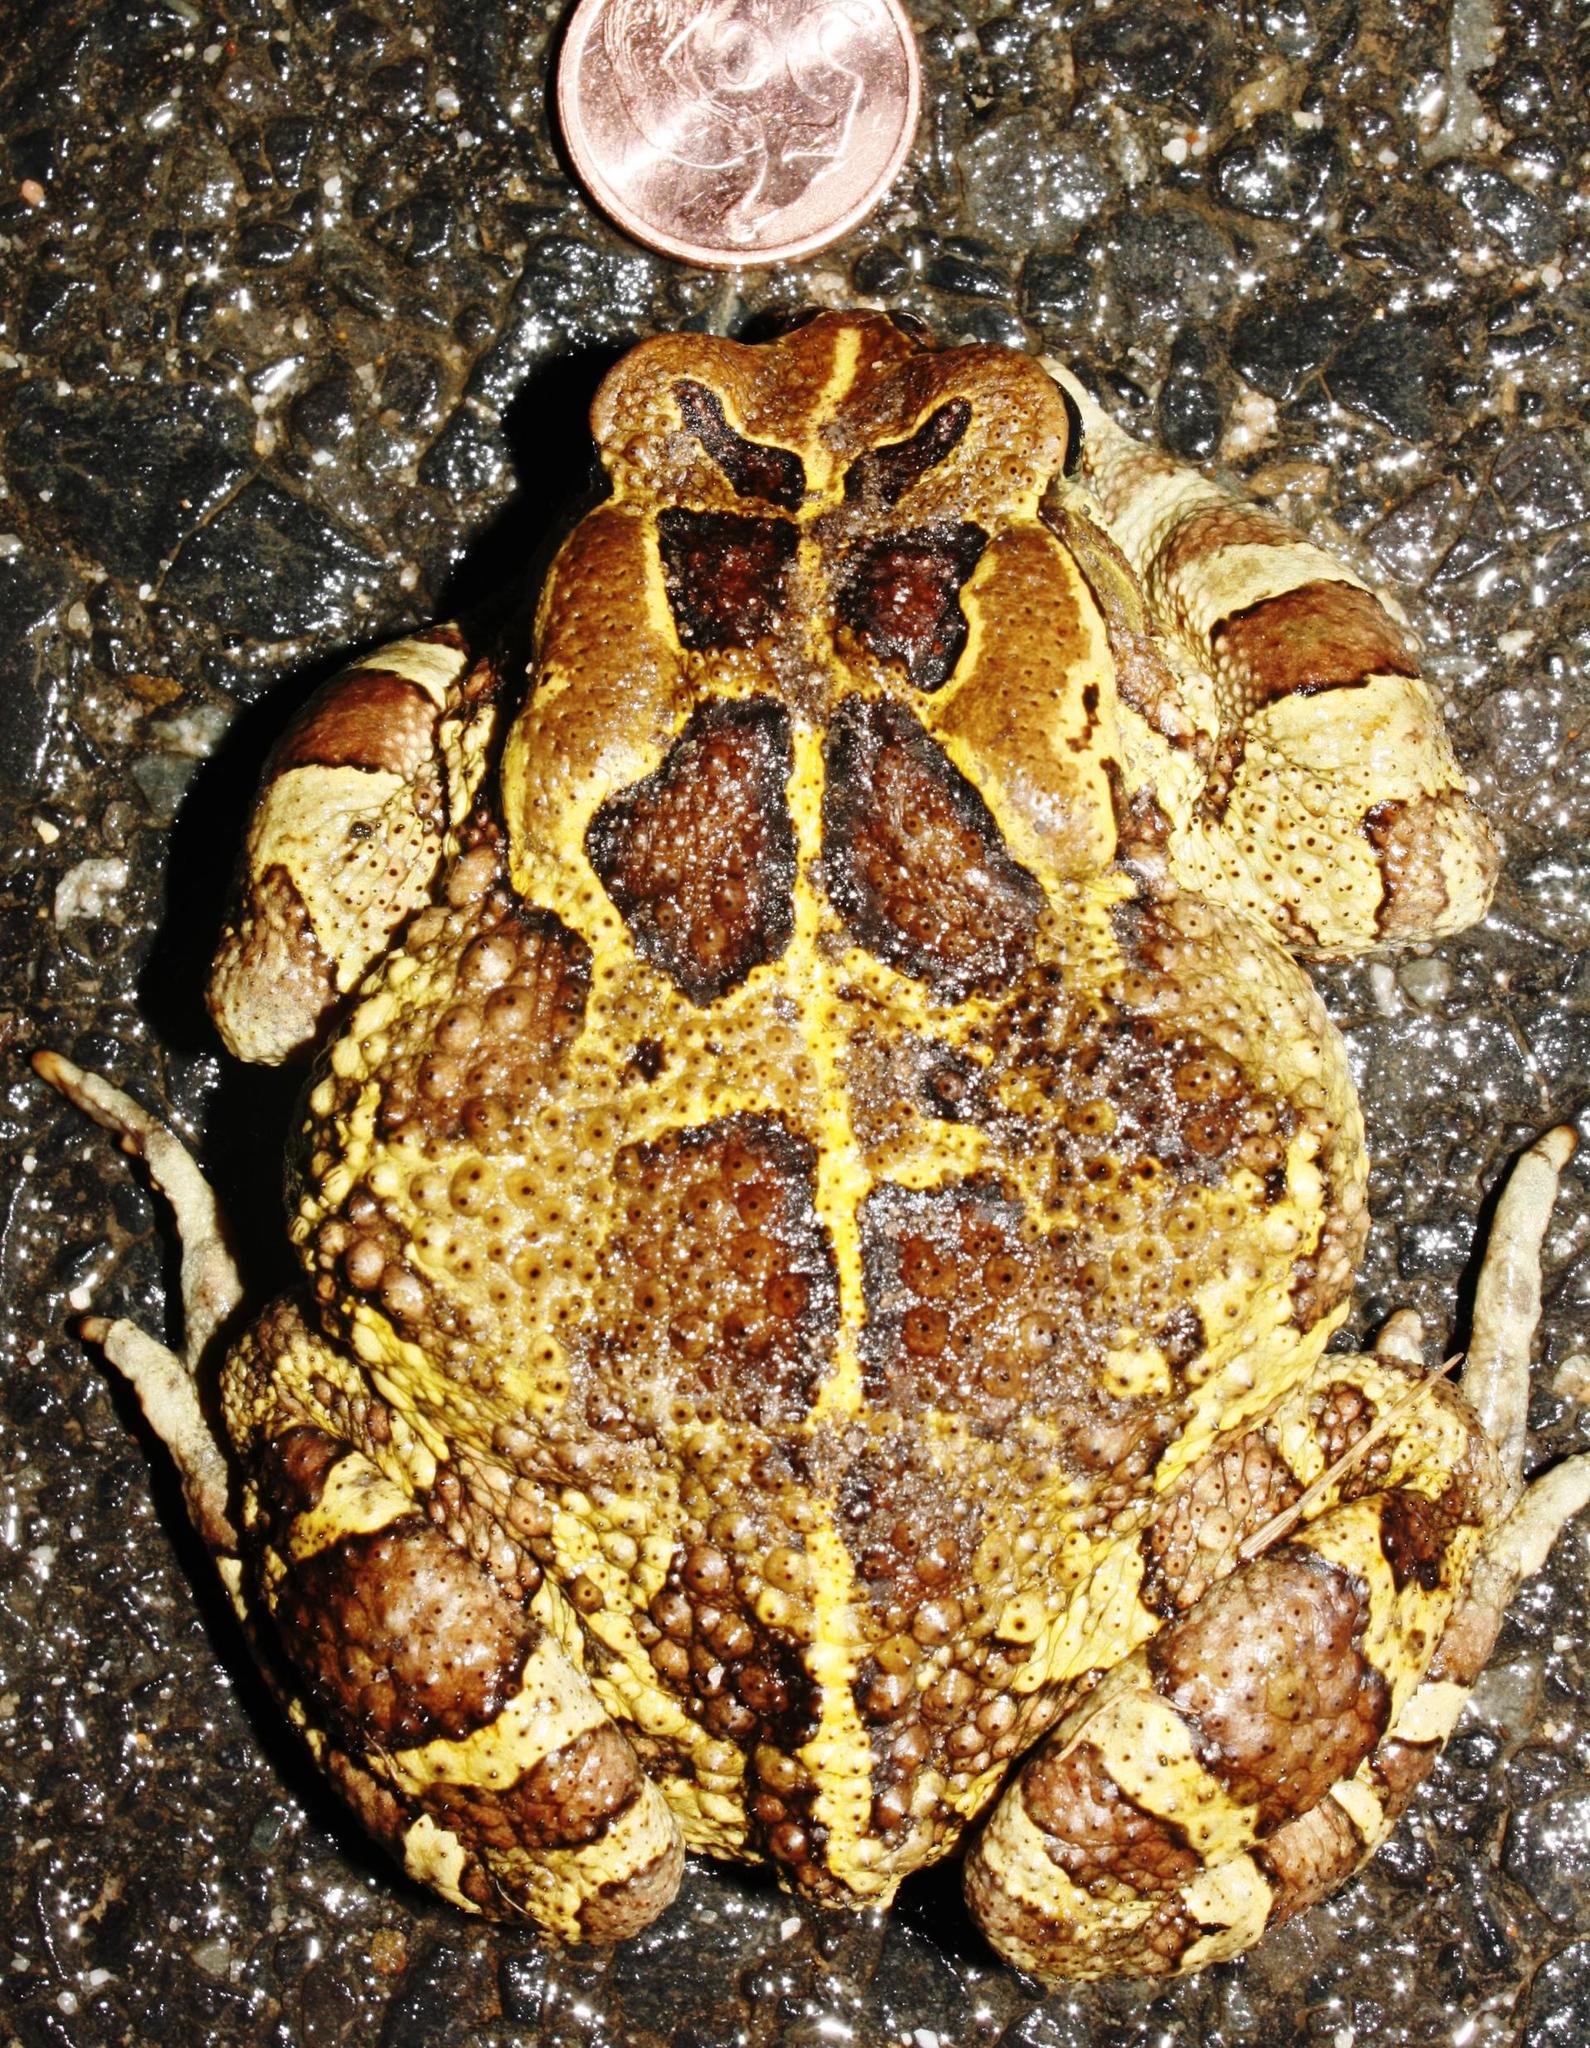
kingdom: Animalia
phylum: Chordata
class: Amphibia
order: Anura
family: Bufonidae
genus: Sclerophrys
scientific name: Sclerophrys pantherina
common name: Panther toad
